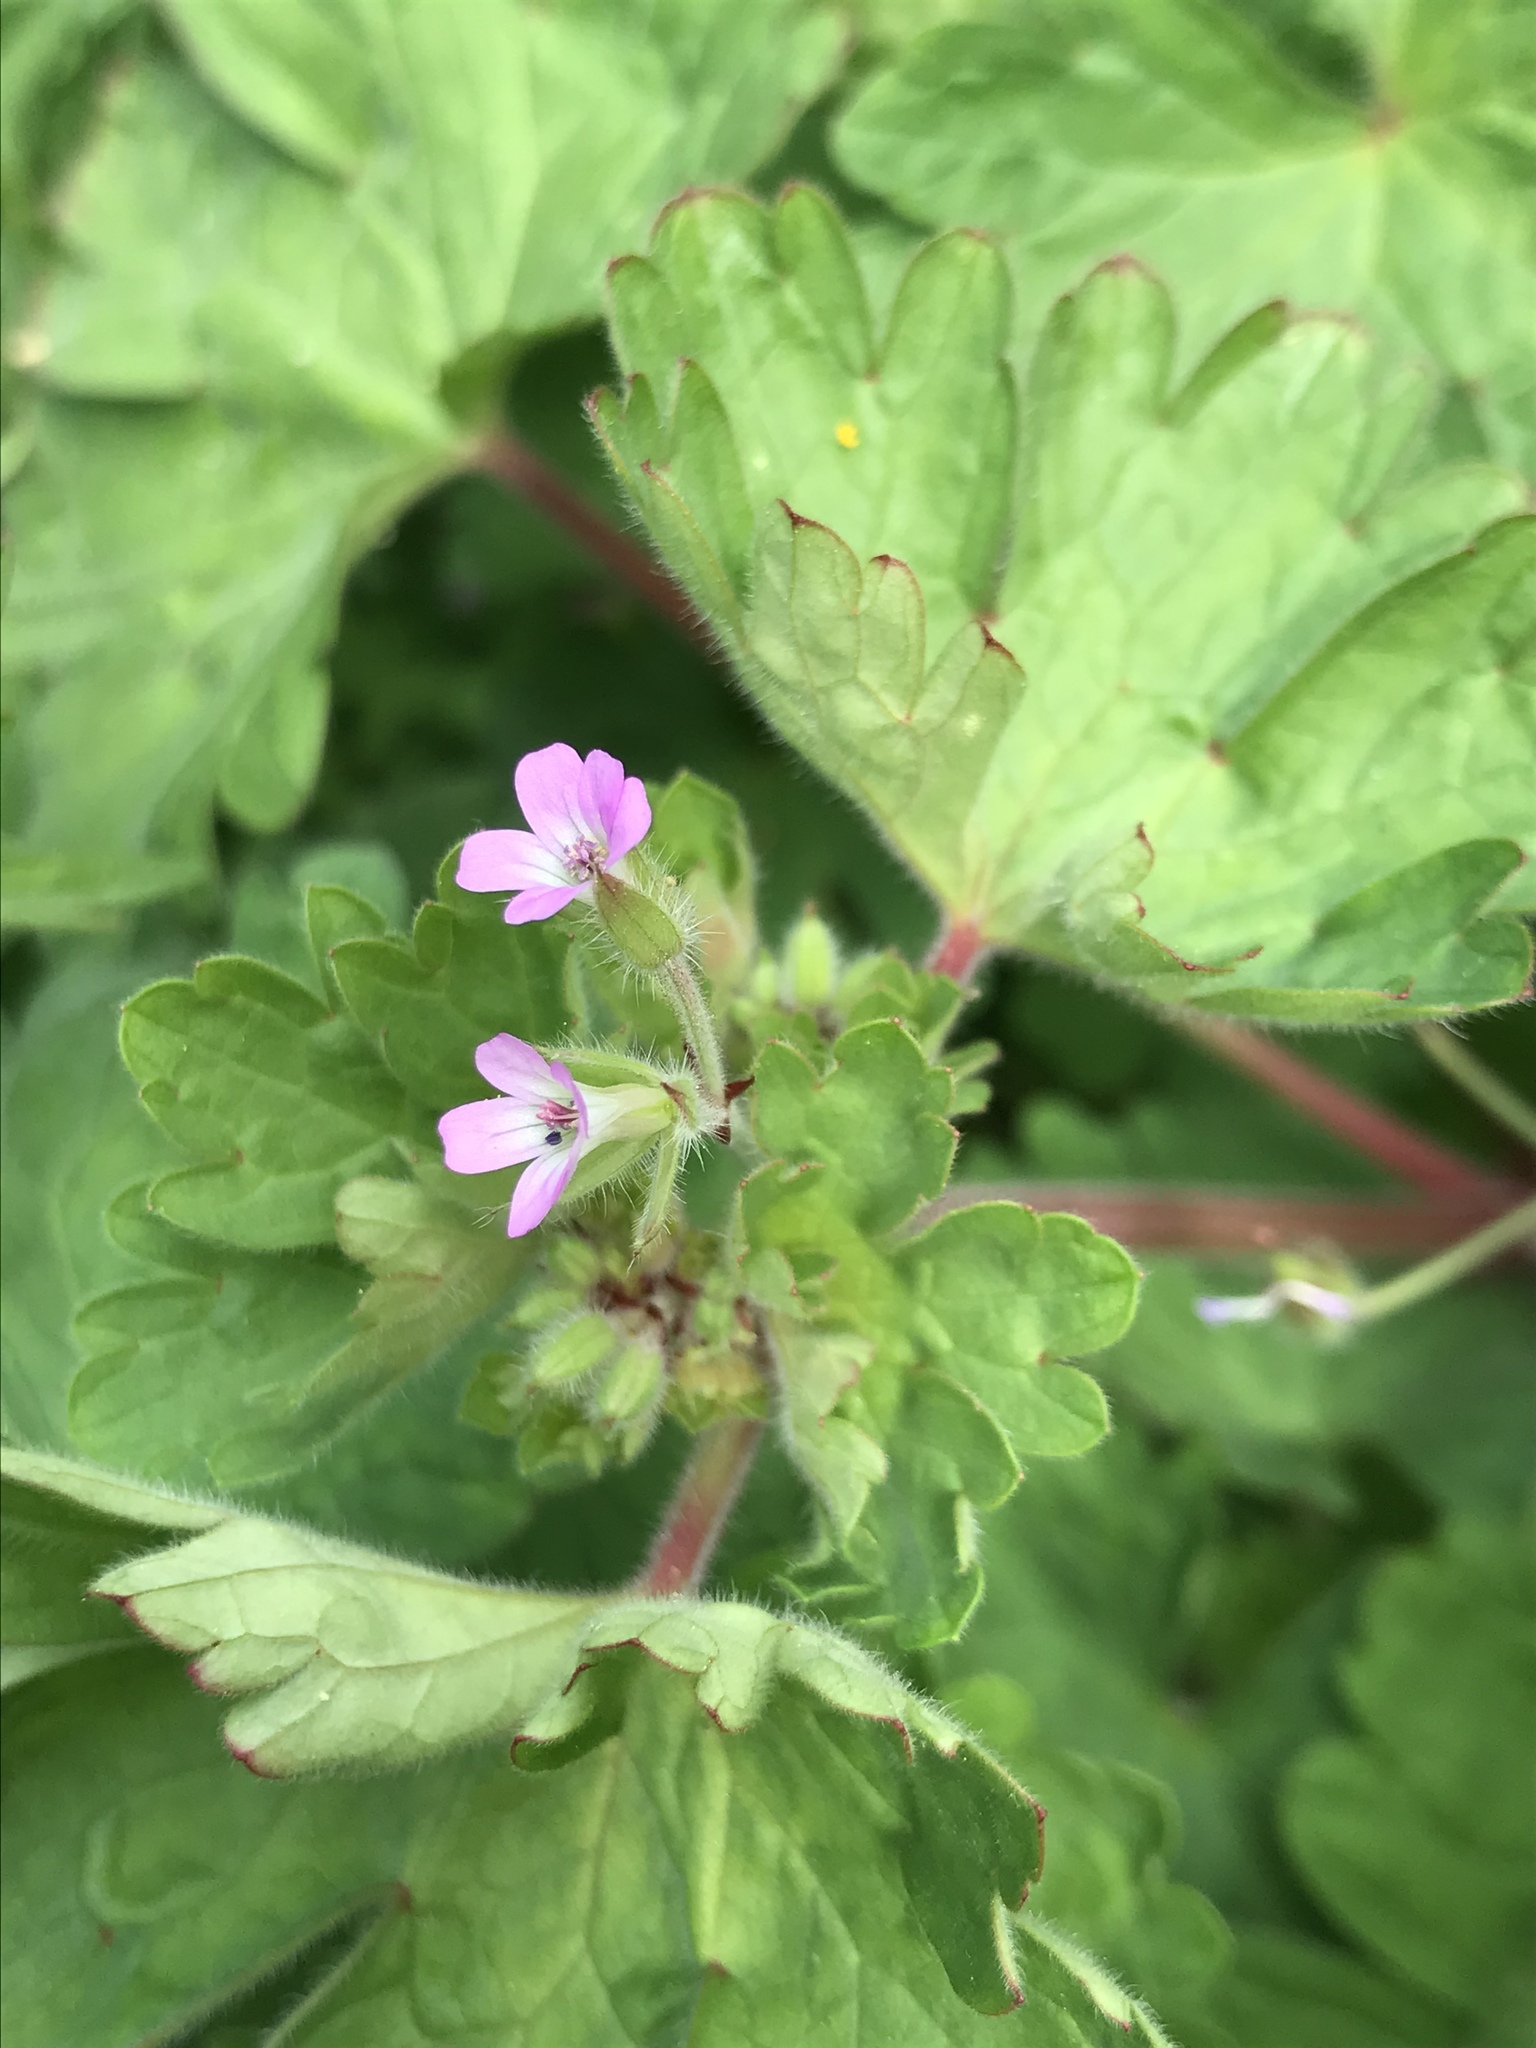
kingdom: Plantae
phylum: Tracheophyta
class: Magnoliopsida
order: Geraniales
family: Geraniaceae
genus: Geranium
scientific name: Geranium rotundifolium
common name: Round-leaved crane's-bill
